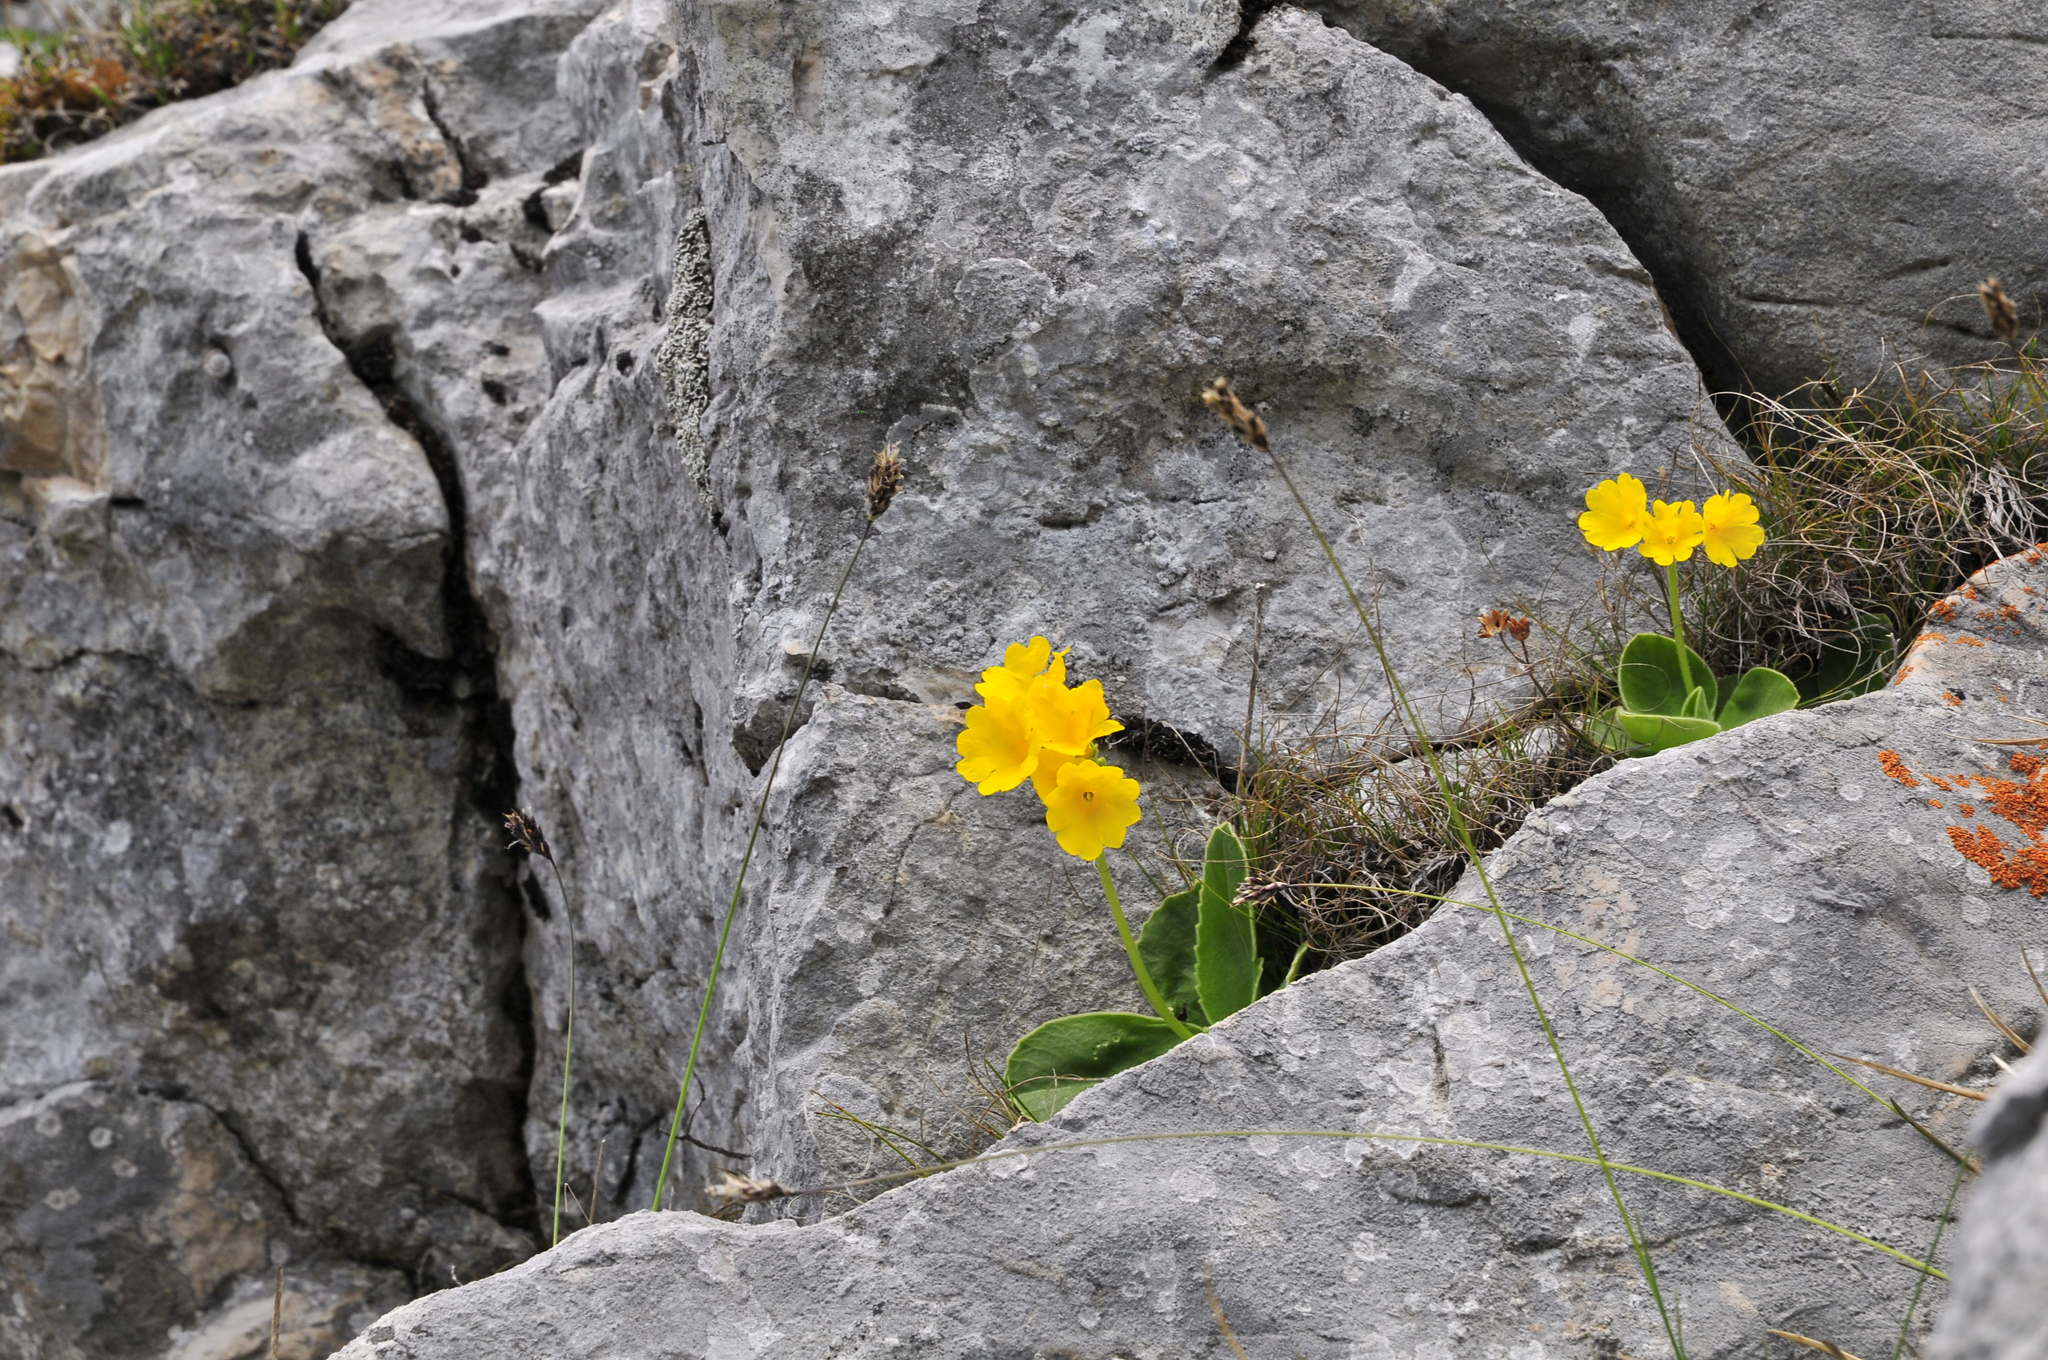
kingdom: Plantae
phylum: Tracheophyta
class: Magnoliopsida
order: Ericales
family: Primulaceae
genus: Primula
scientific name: Primula auricula
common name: Auricula
